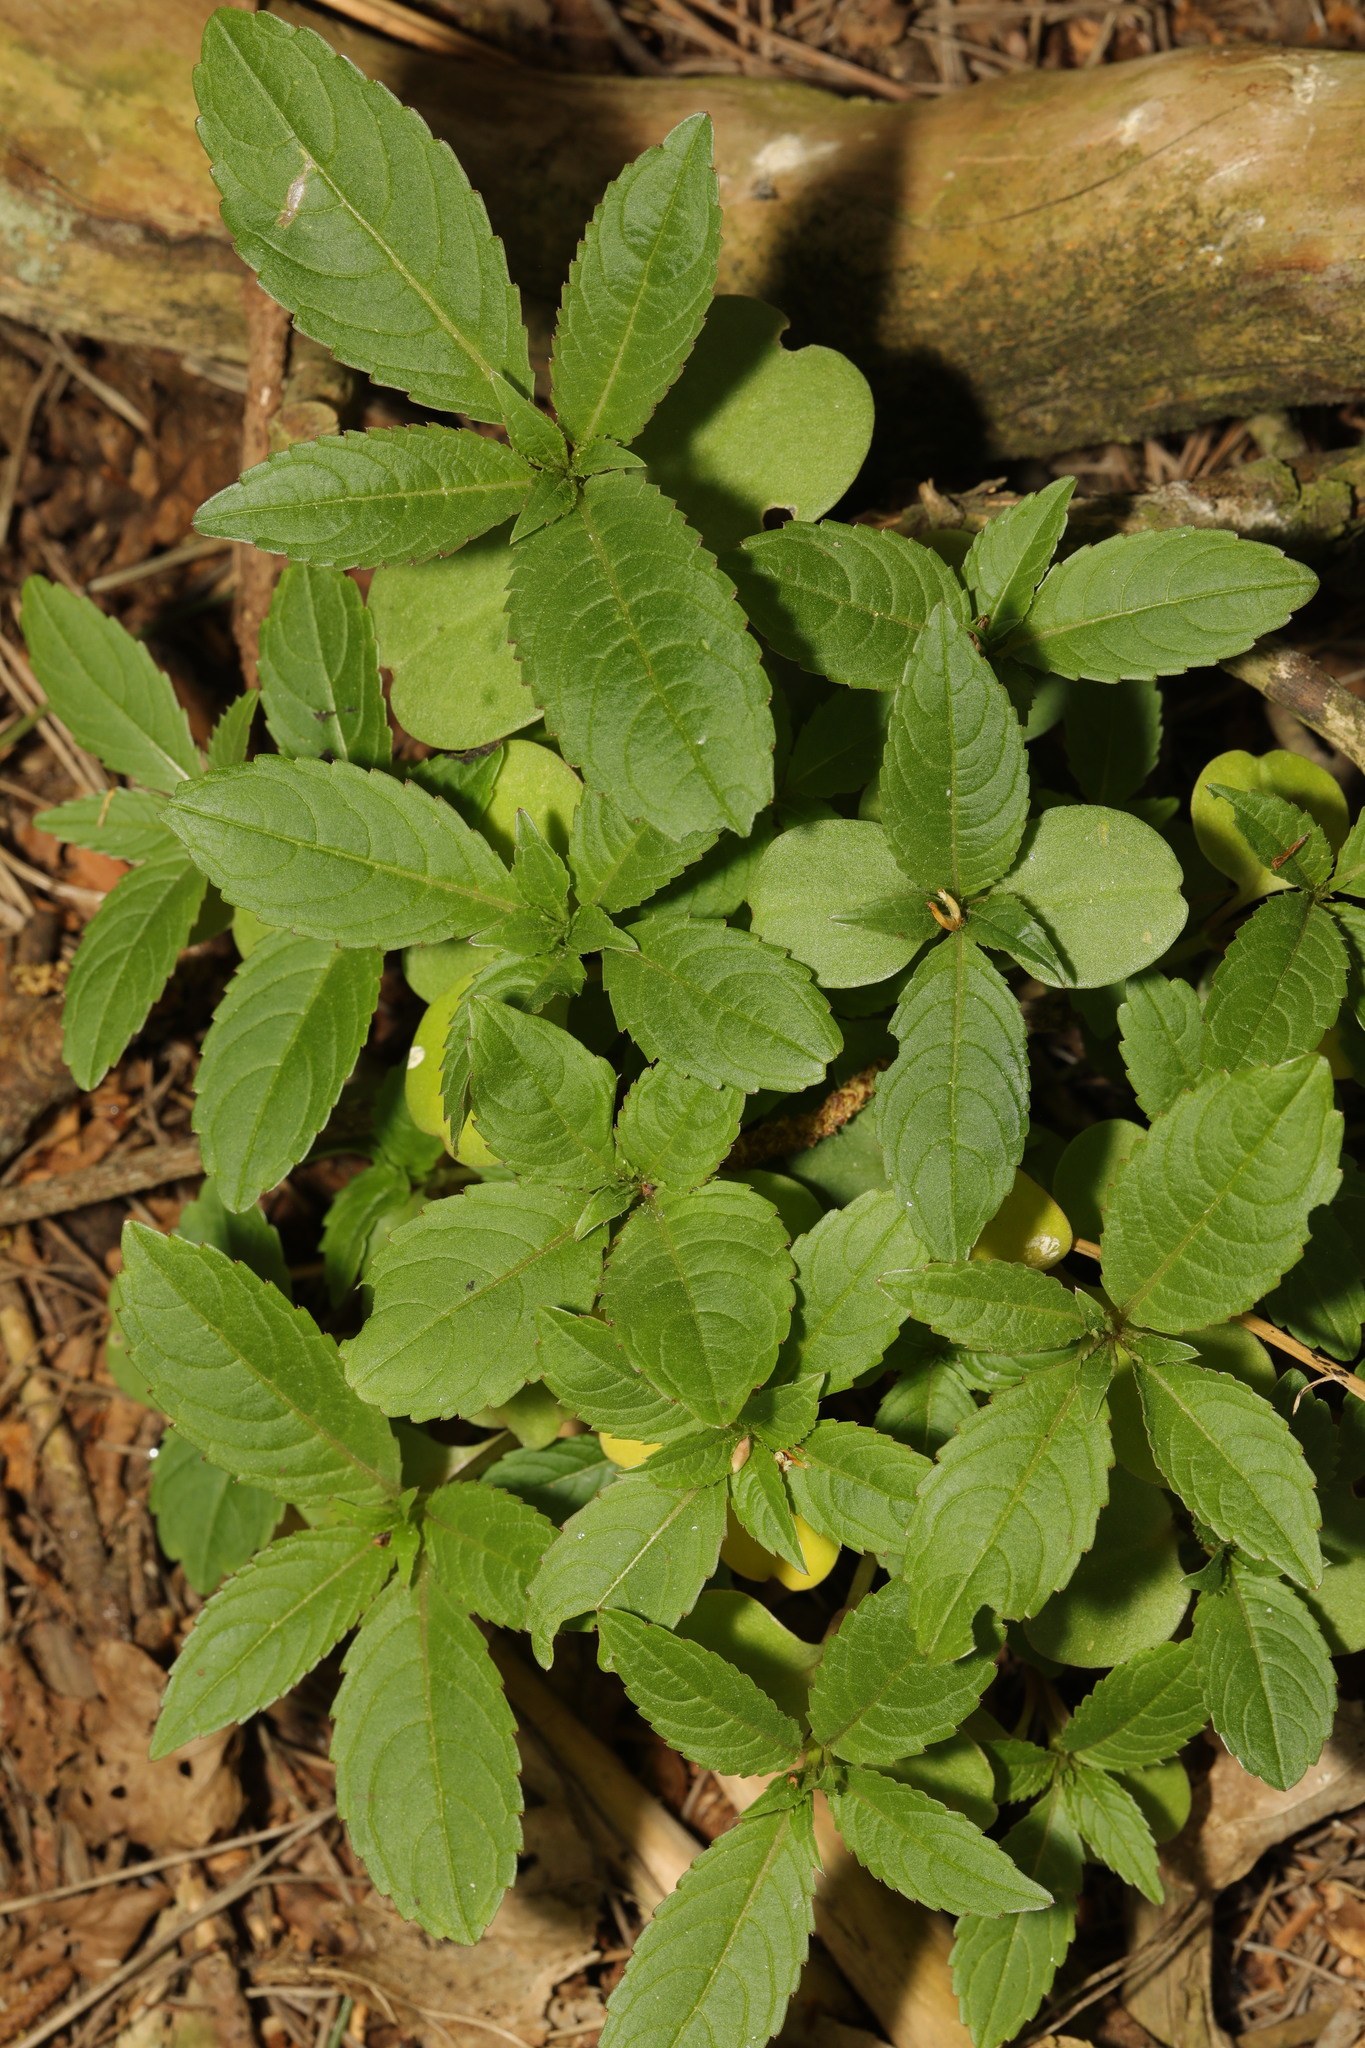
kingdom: Plantae
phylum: Tracheophyta
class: Magnoliopsida
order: Malpighiales
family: Euphorbiaceae
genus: Mercurialis
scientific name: Mercurialis perennis
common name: Dog mercury
